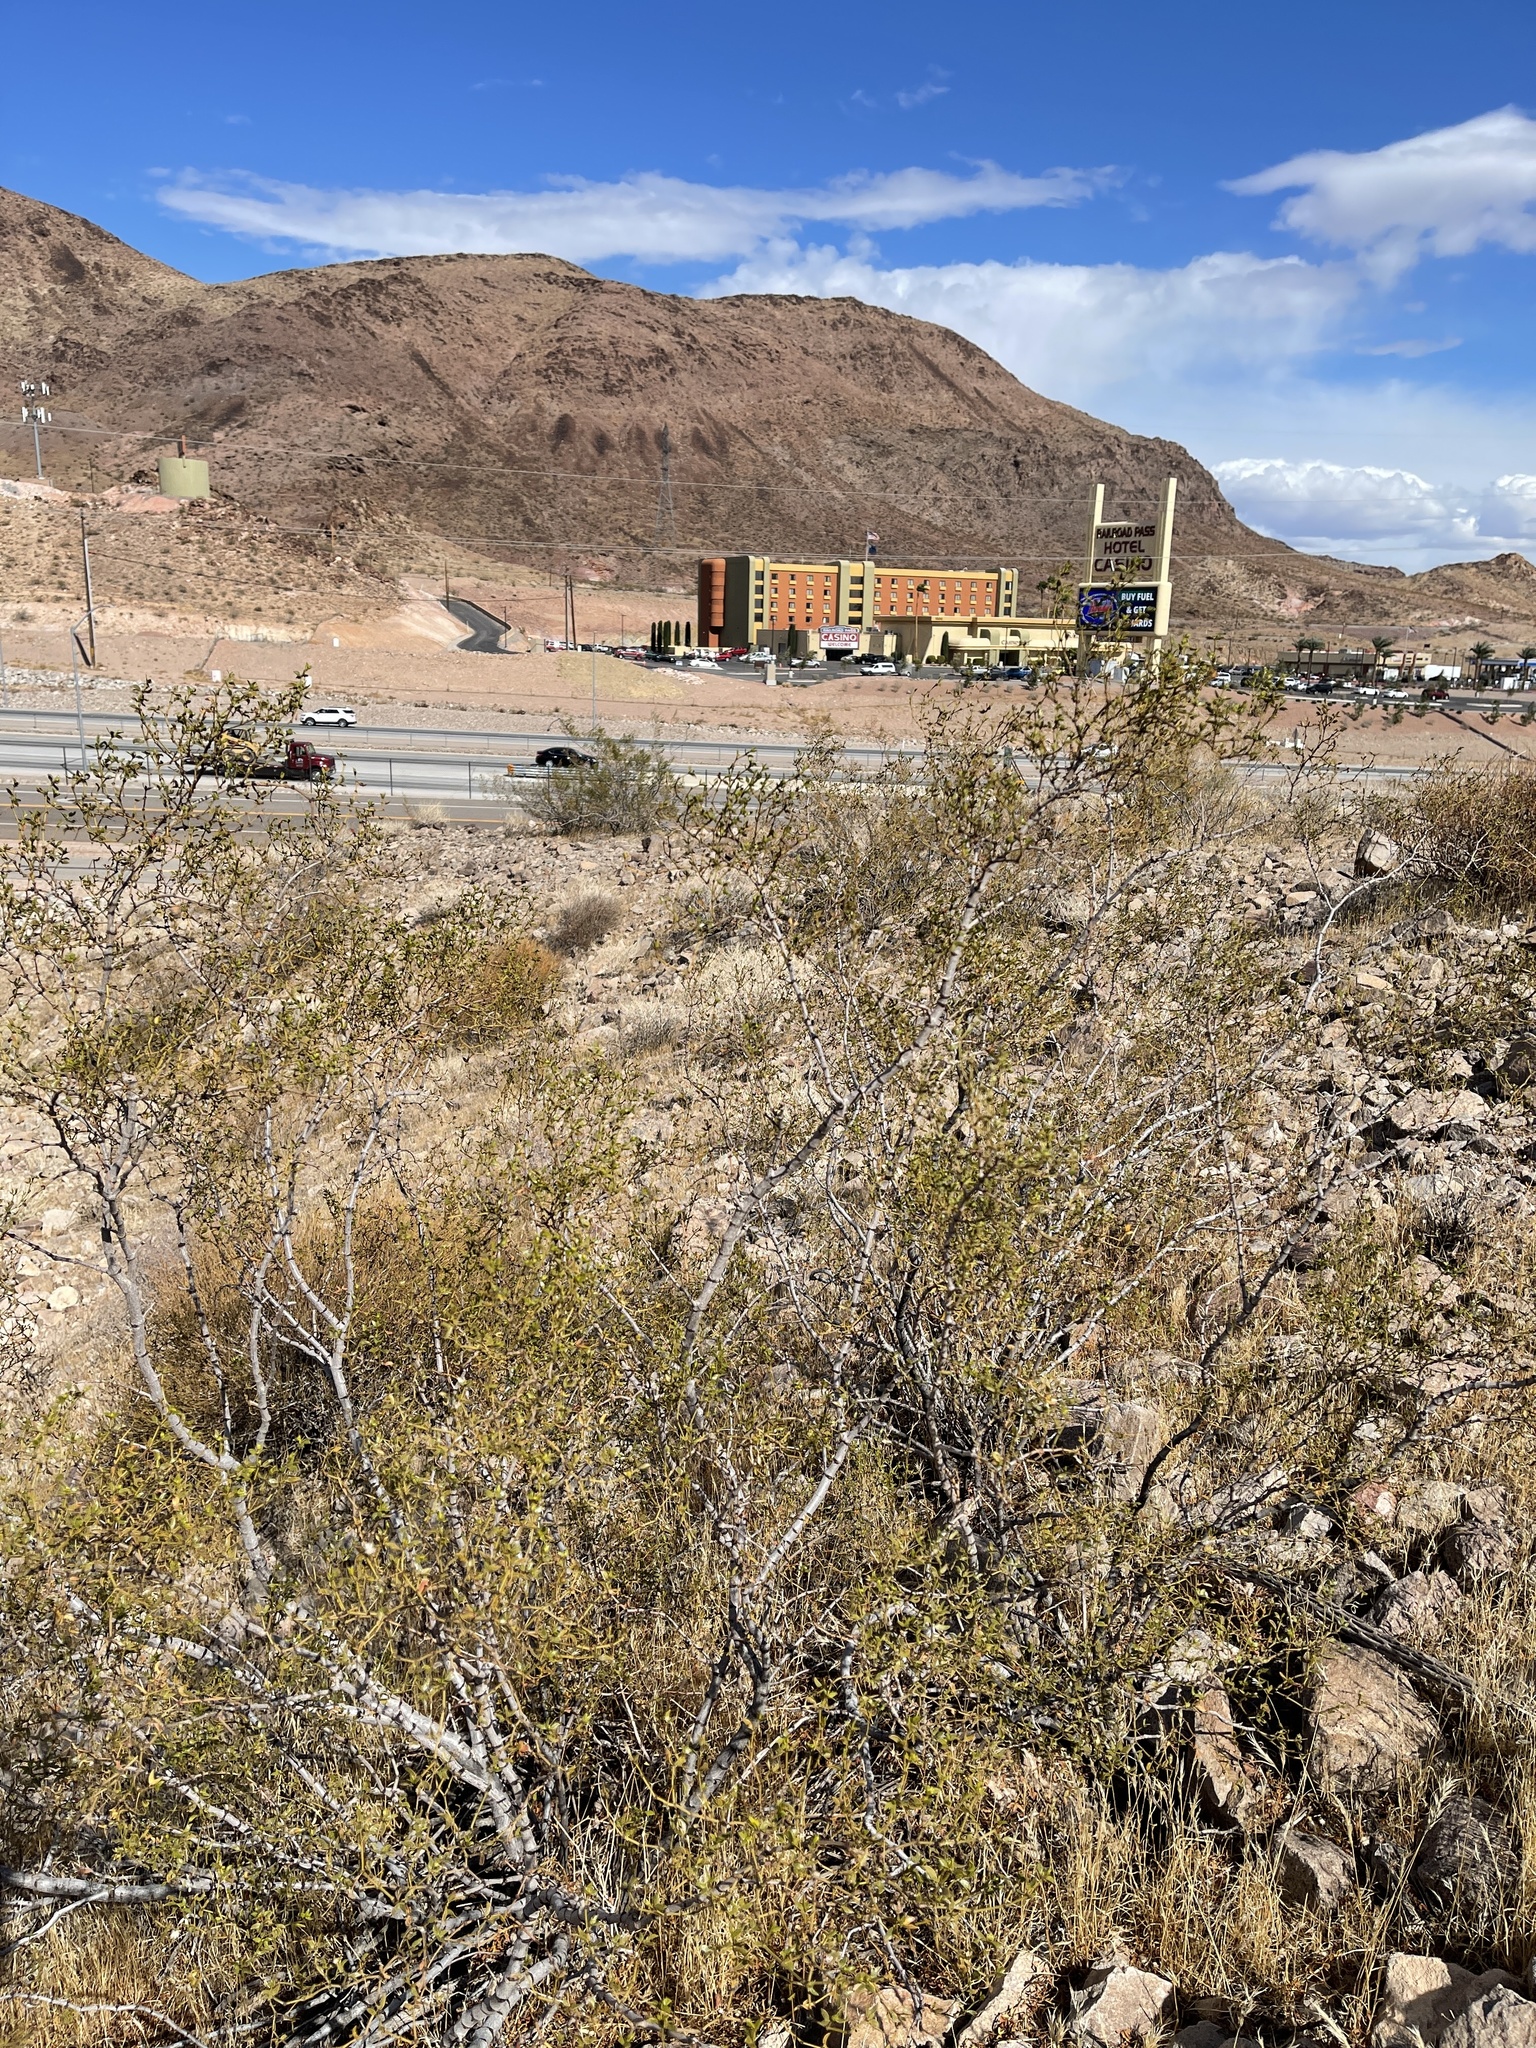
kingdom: Plantae
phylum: Tracheophyta
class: Magnoliopsida
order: Zygophyllales
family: Zygophyllaceae
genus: Larrea
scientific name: Larrea tridentata
